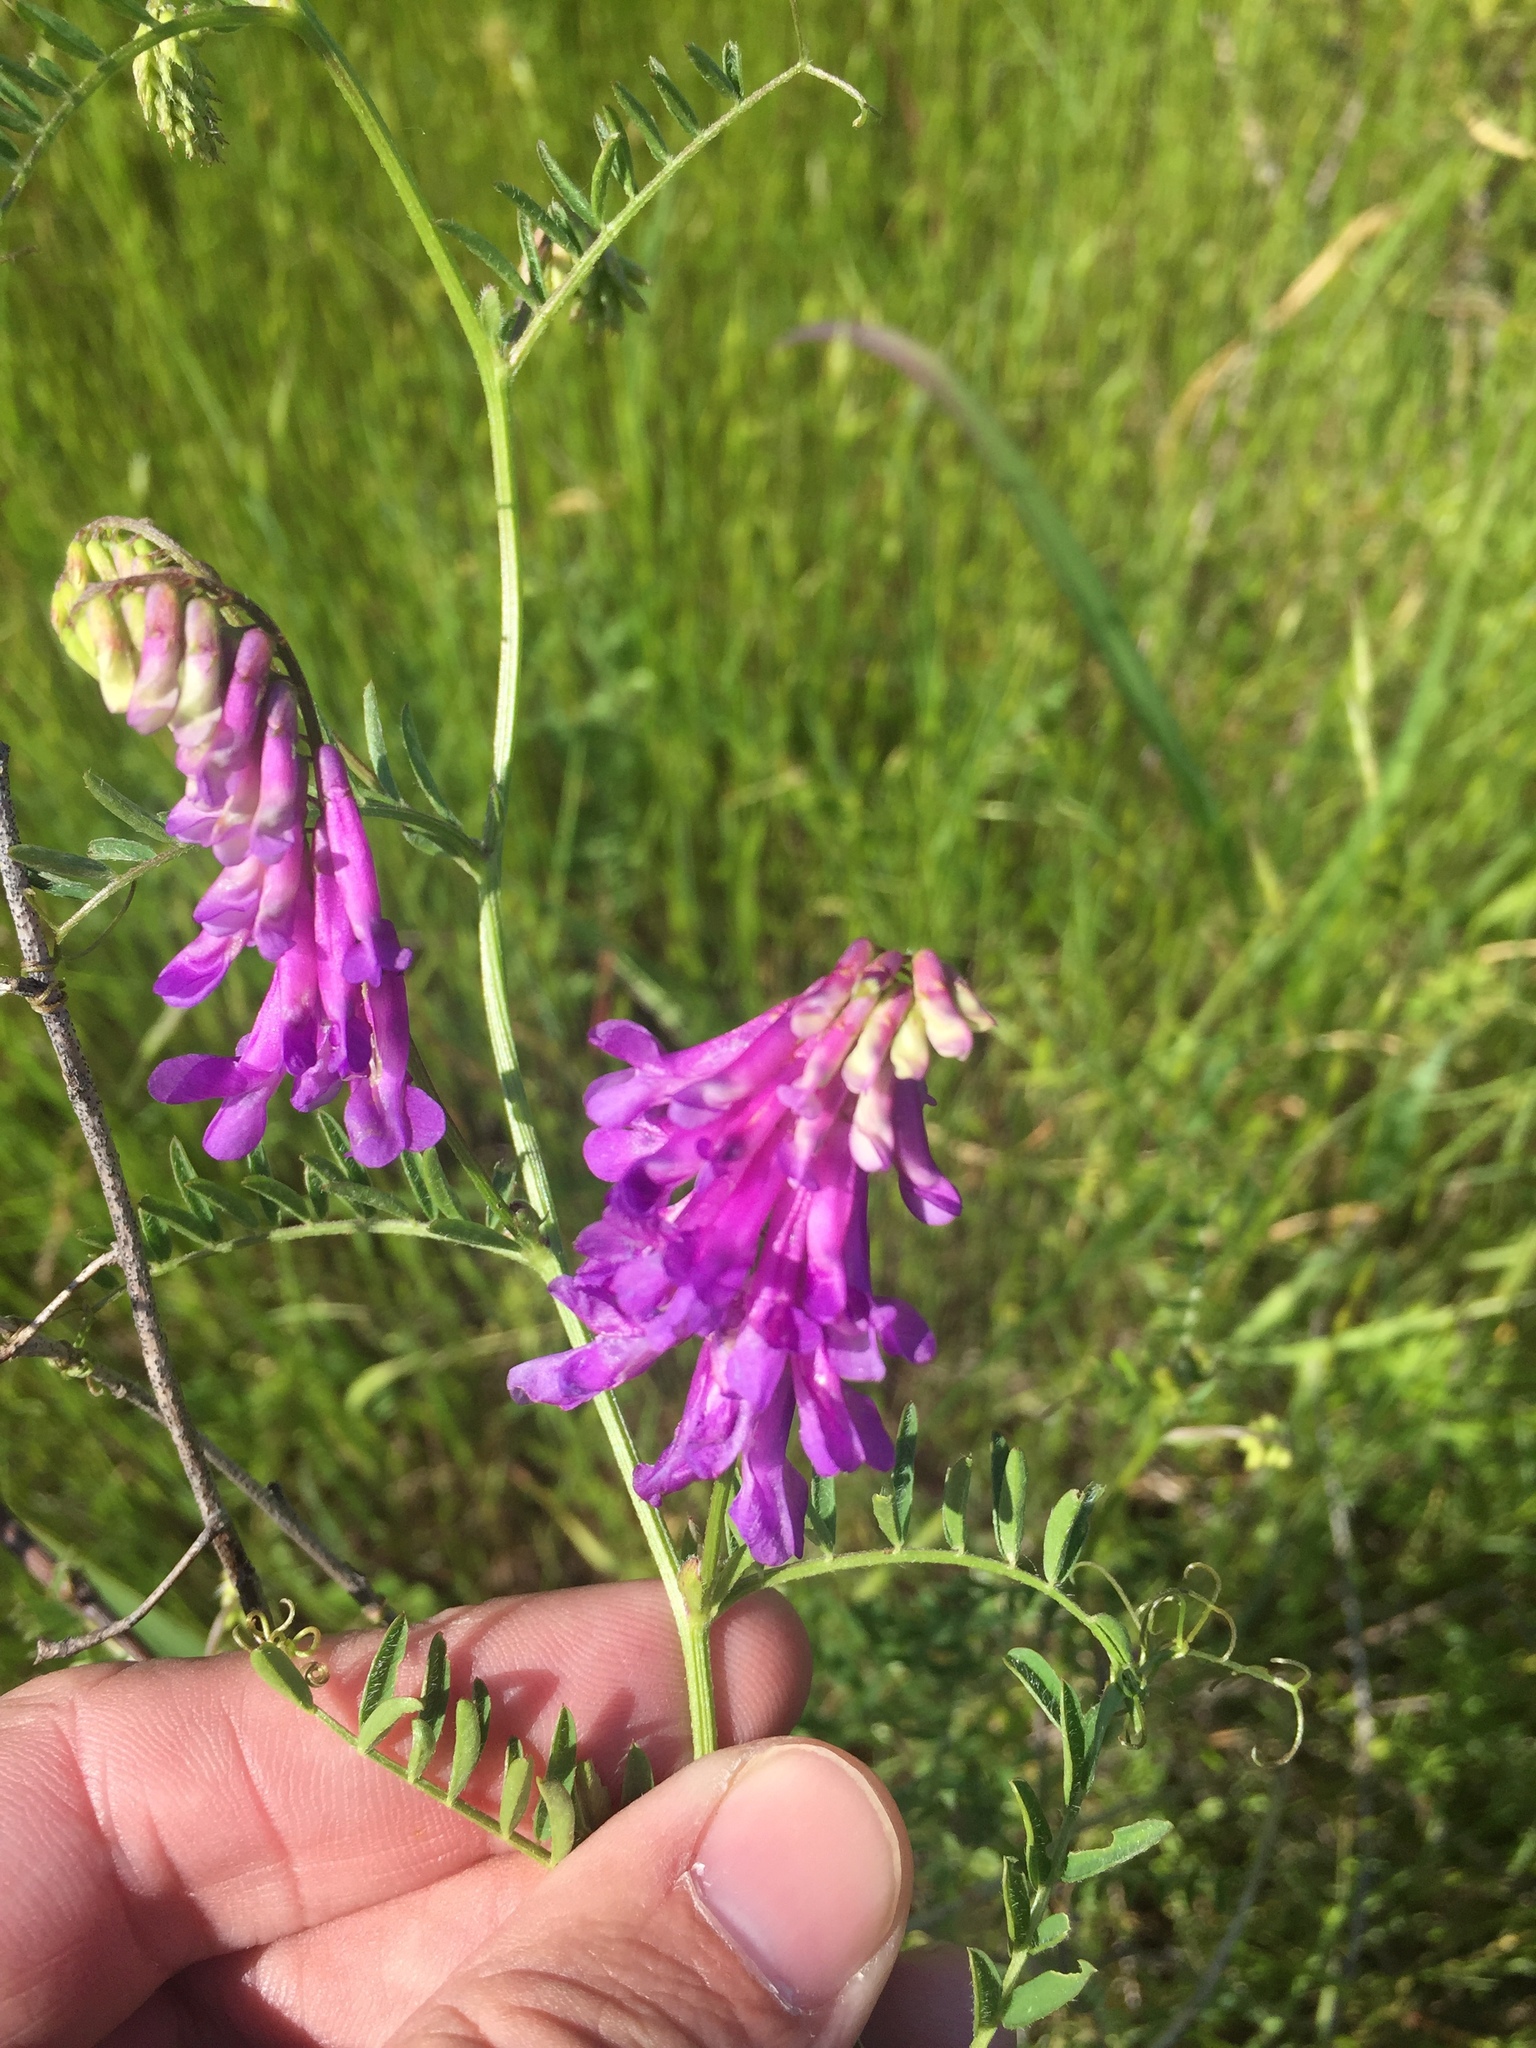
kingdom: Plantae
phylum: Tracheophyta
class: Magnoliopsida
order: Fabales
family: Fabaceae
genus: Vicia
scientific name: Vicia villosa
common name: Fodder vetch
